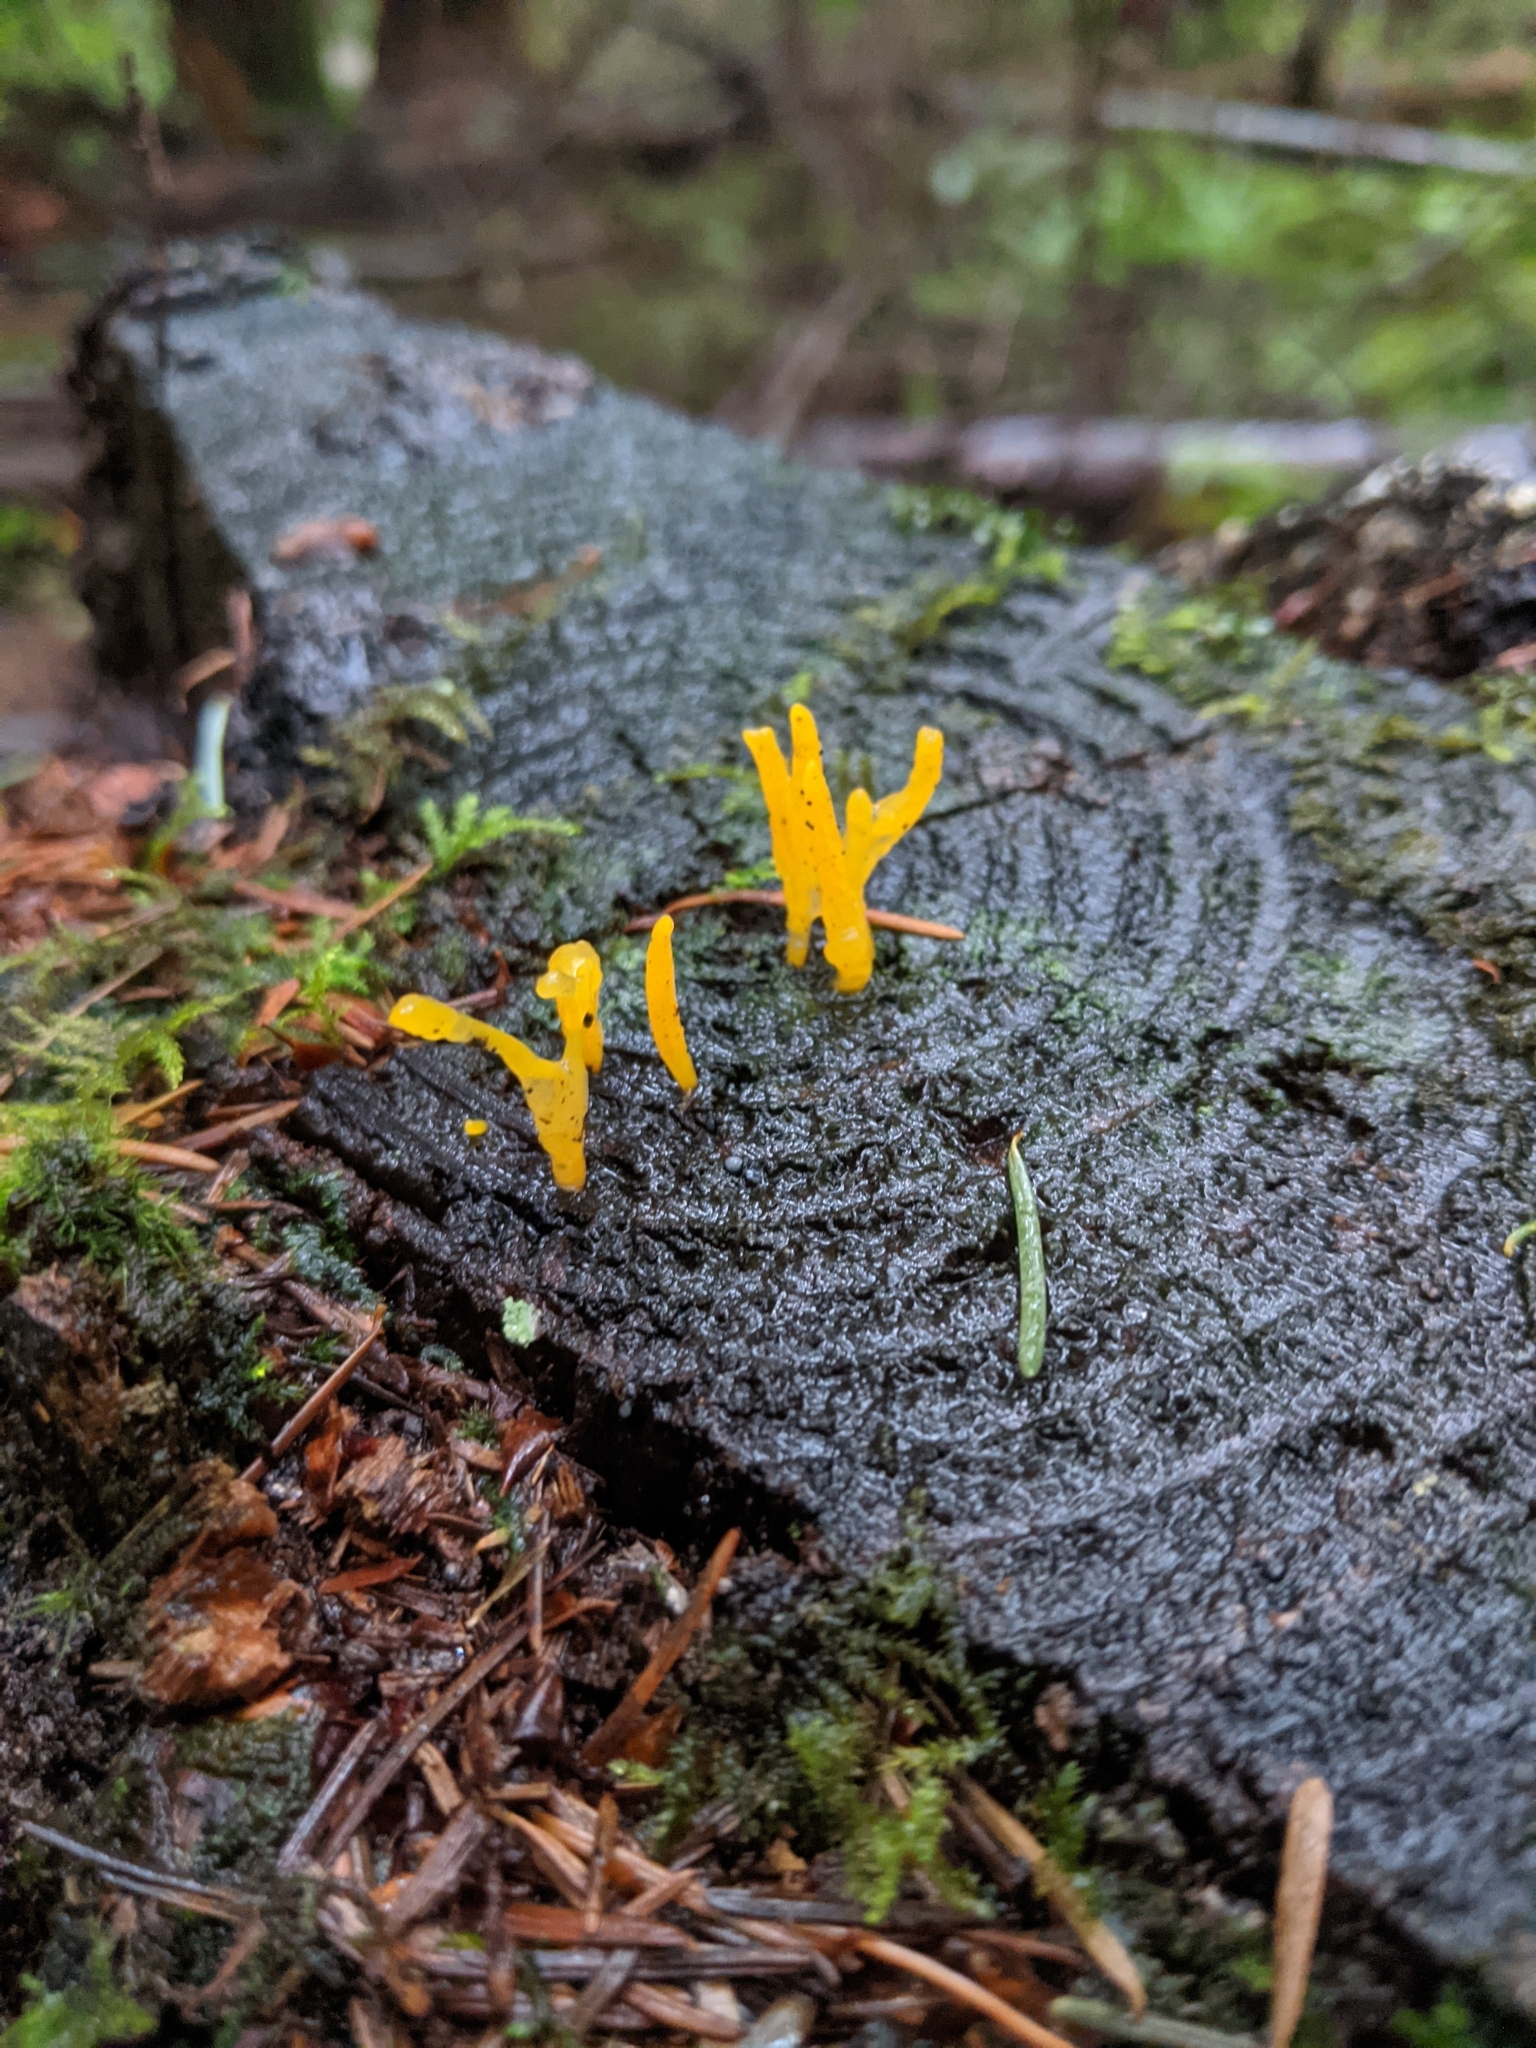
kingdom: Fungi
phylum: Basidiomycota
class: Dacrymycetes
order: Dacrymycetales
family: Dacrymycetaceae
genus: Calocera
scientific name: Calocera viscosa
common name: Yellow stagshorn
